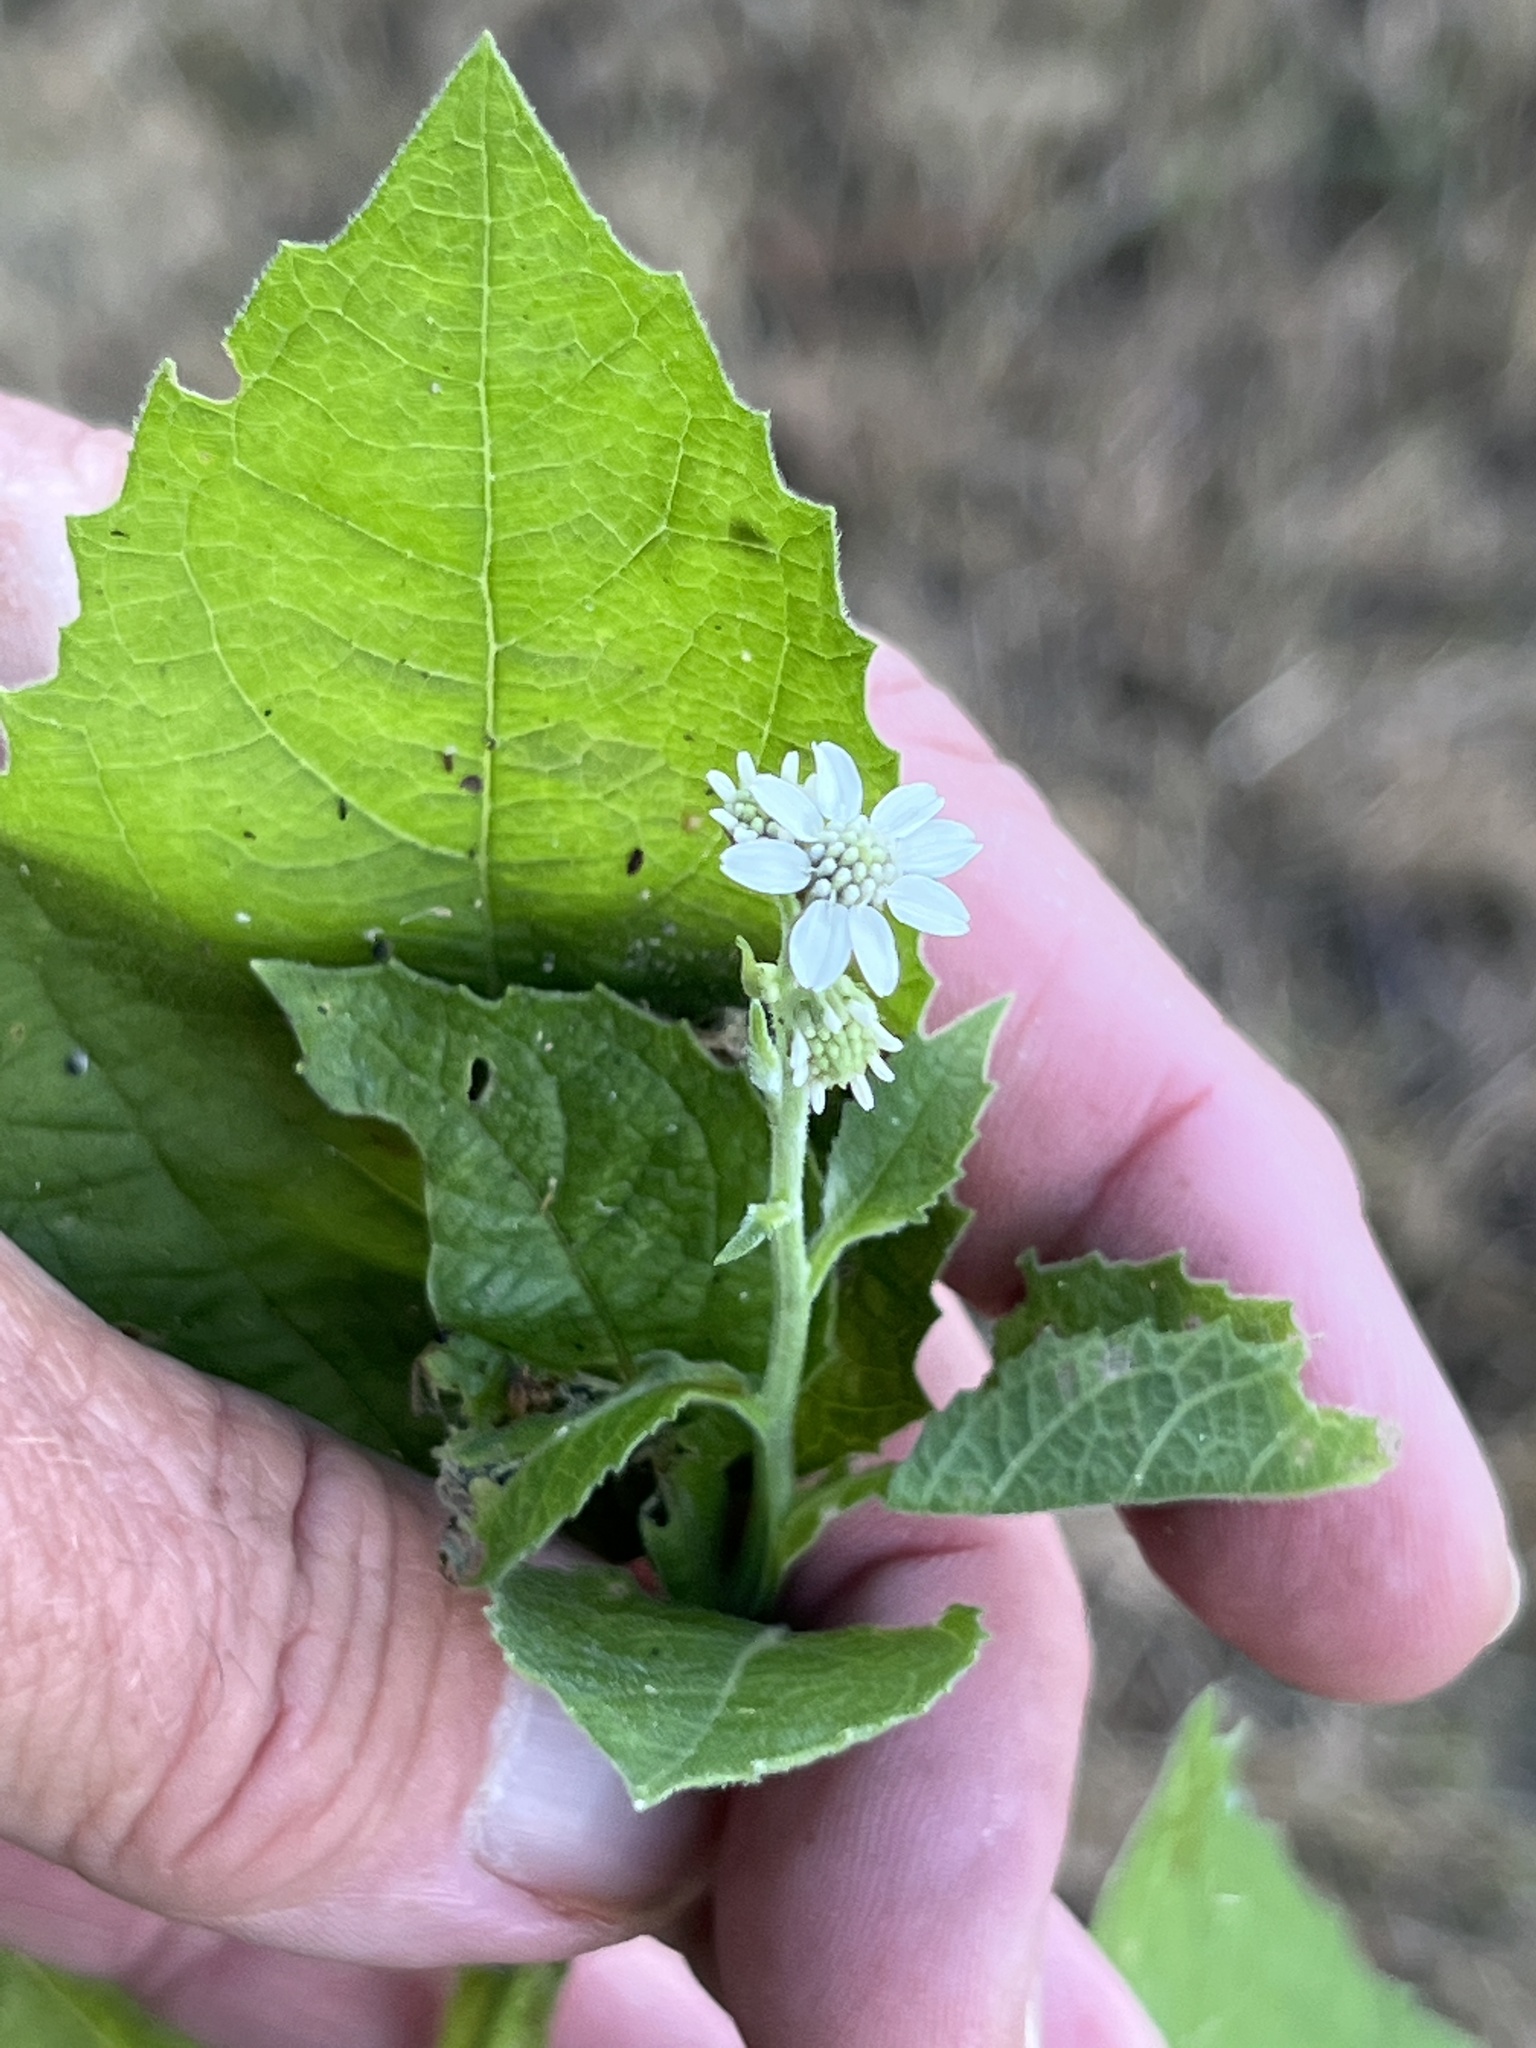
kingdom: Plantae
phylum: Tracheophyta
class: Magnoliopsida
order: Asterales
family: Asteraceae
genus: Verbesina
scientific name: Verbesina microptera
